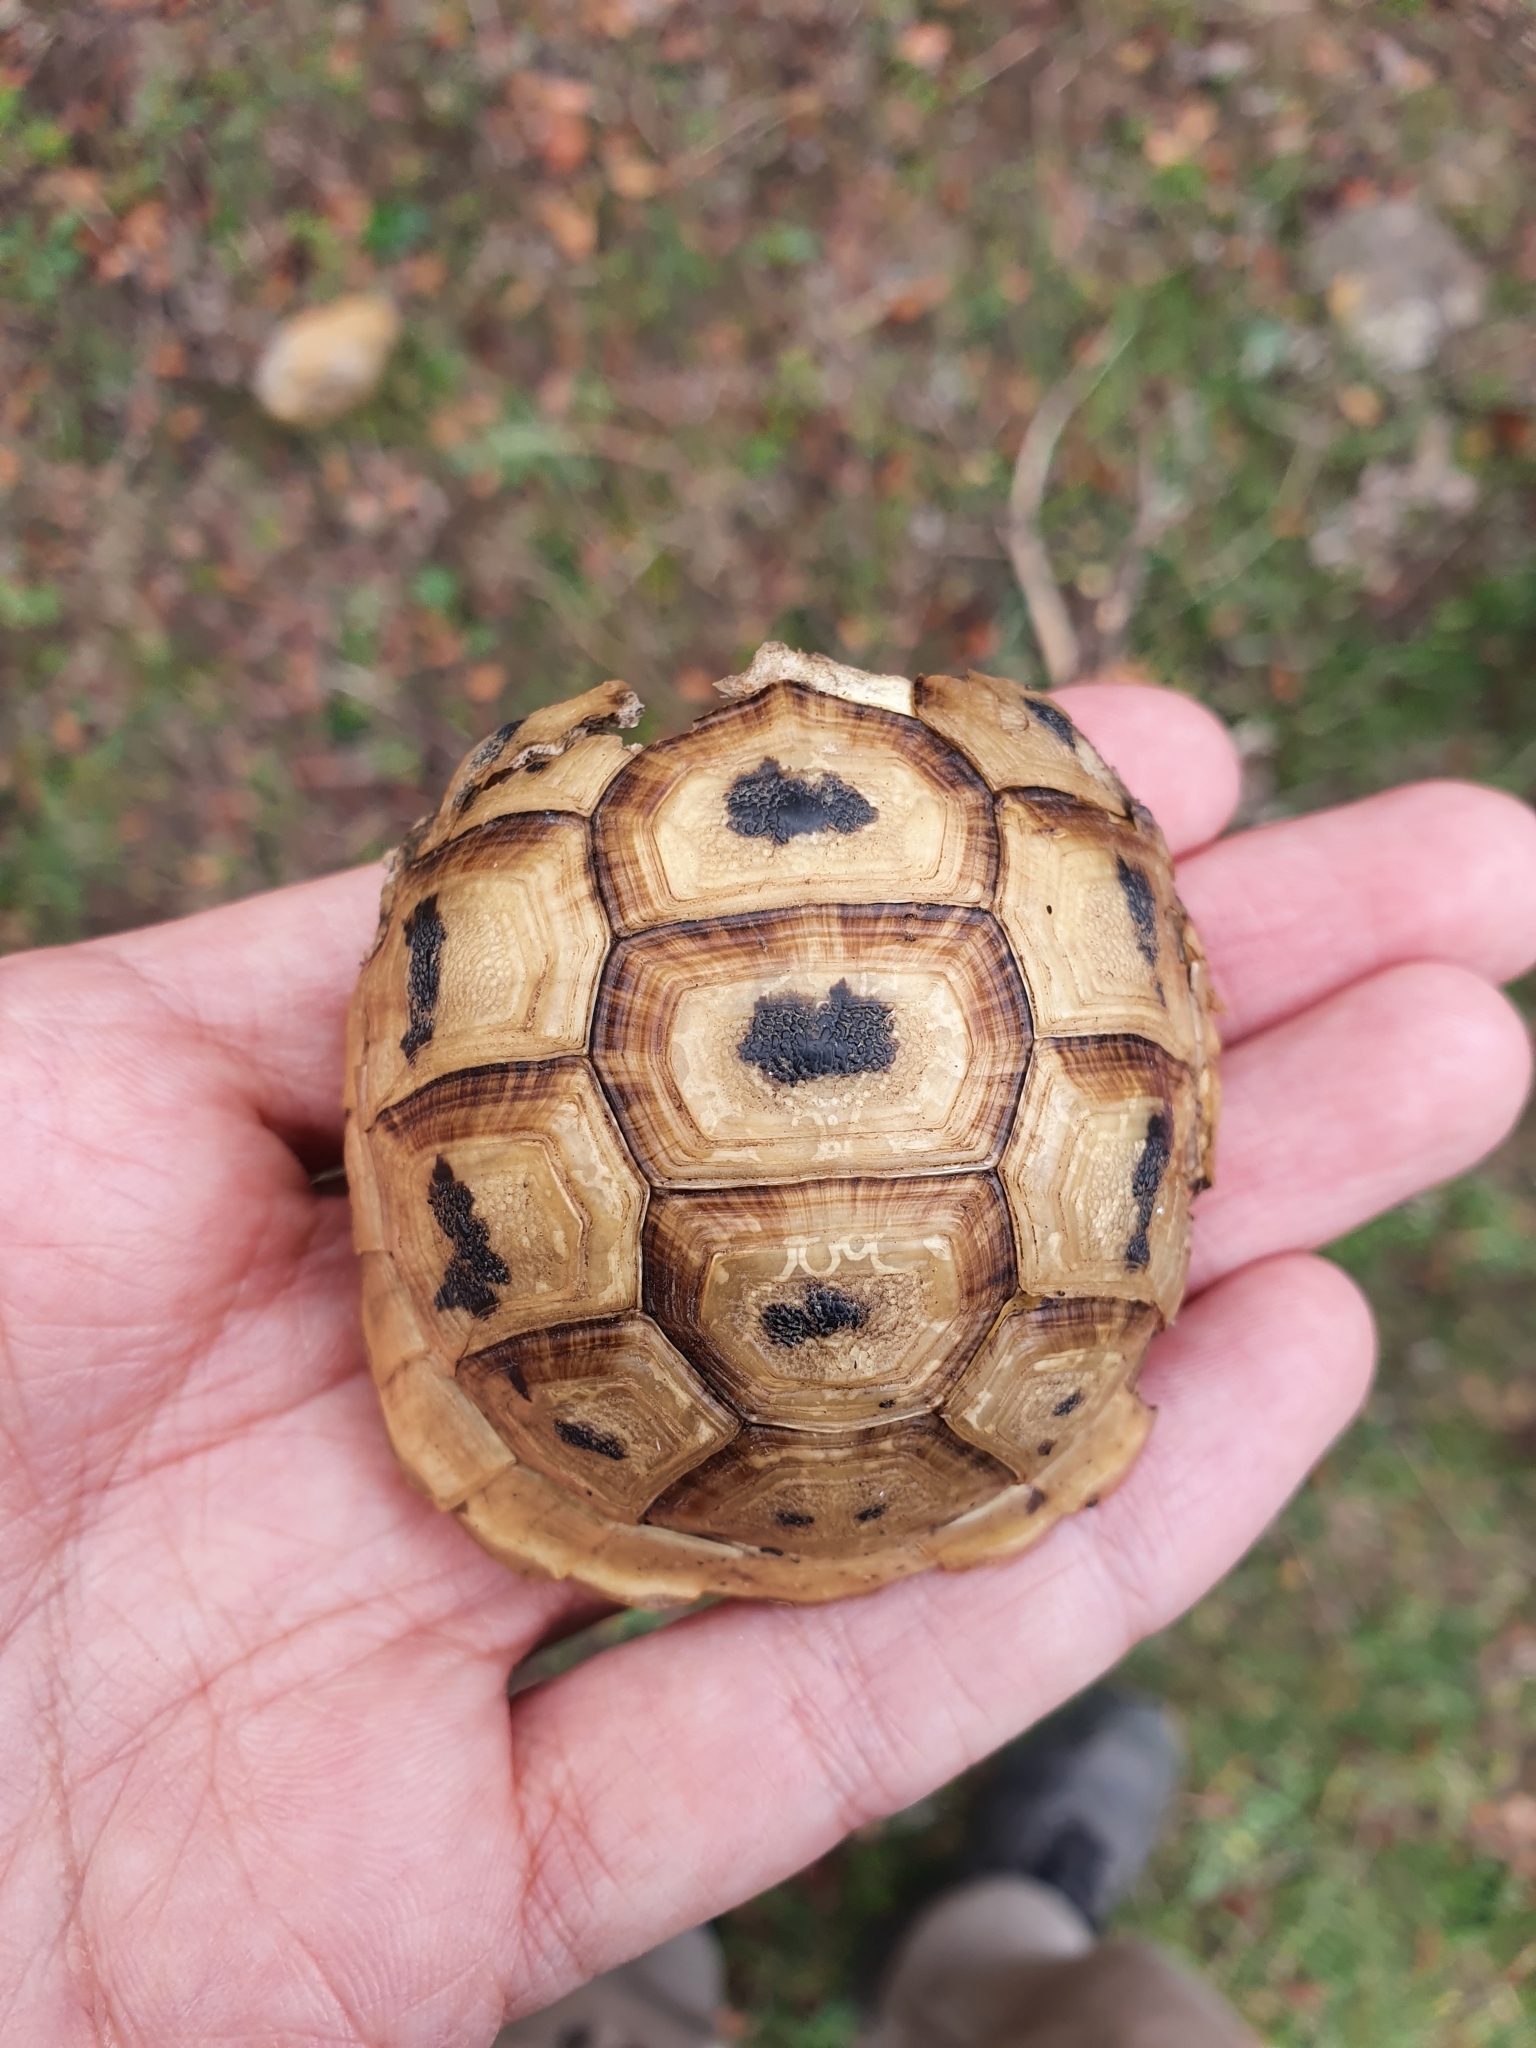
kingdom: Animalia
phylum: Chordata
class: Testudines
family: Testudinidae
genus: Testudo
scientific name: Testudo graeca
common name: Common tortoise
